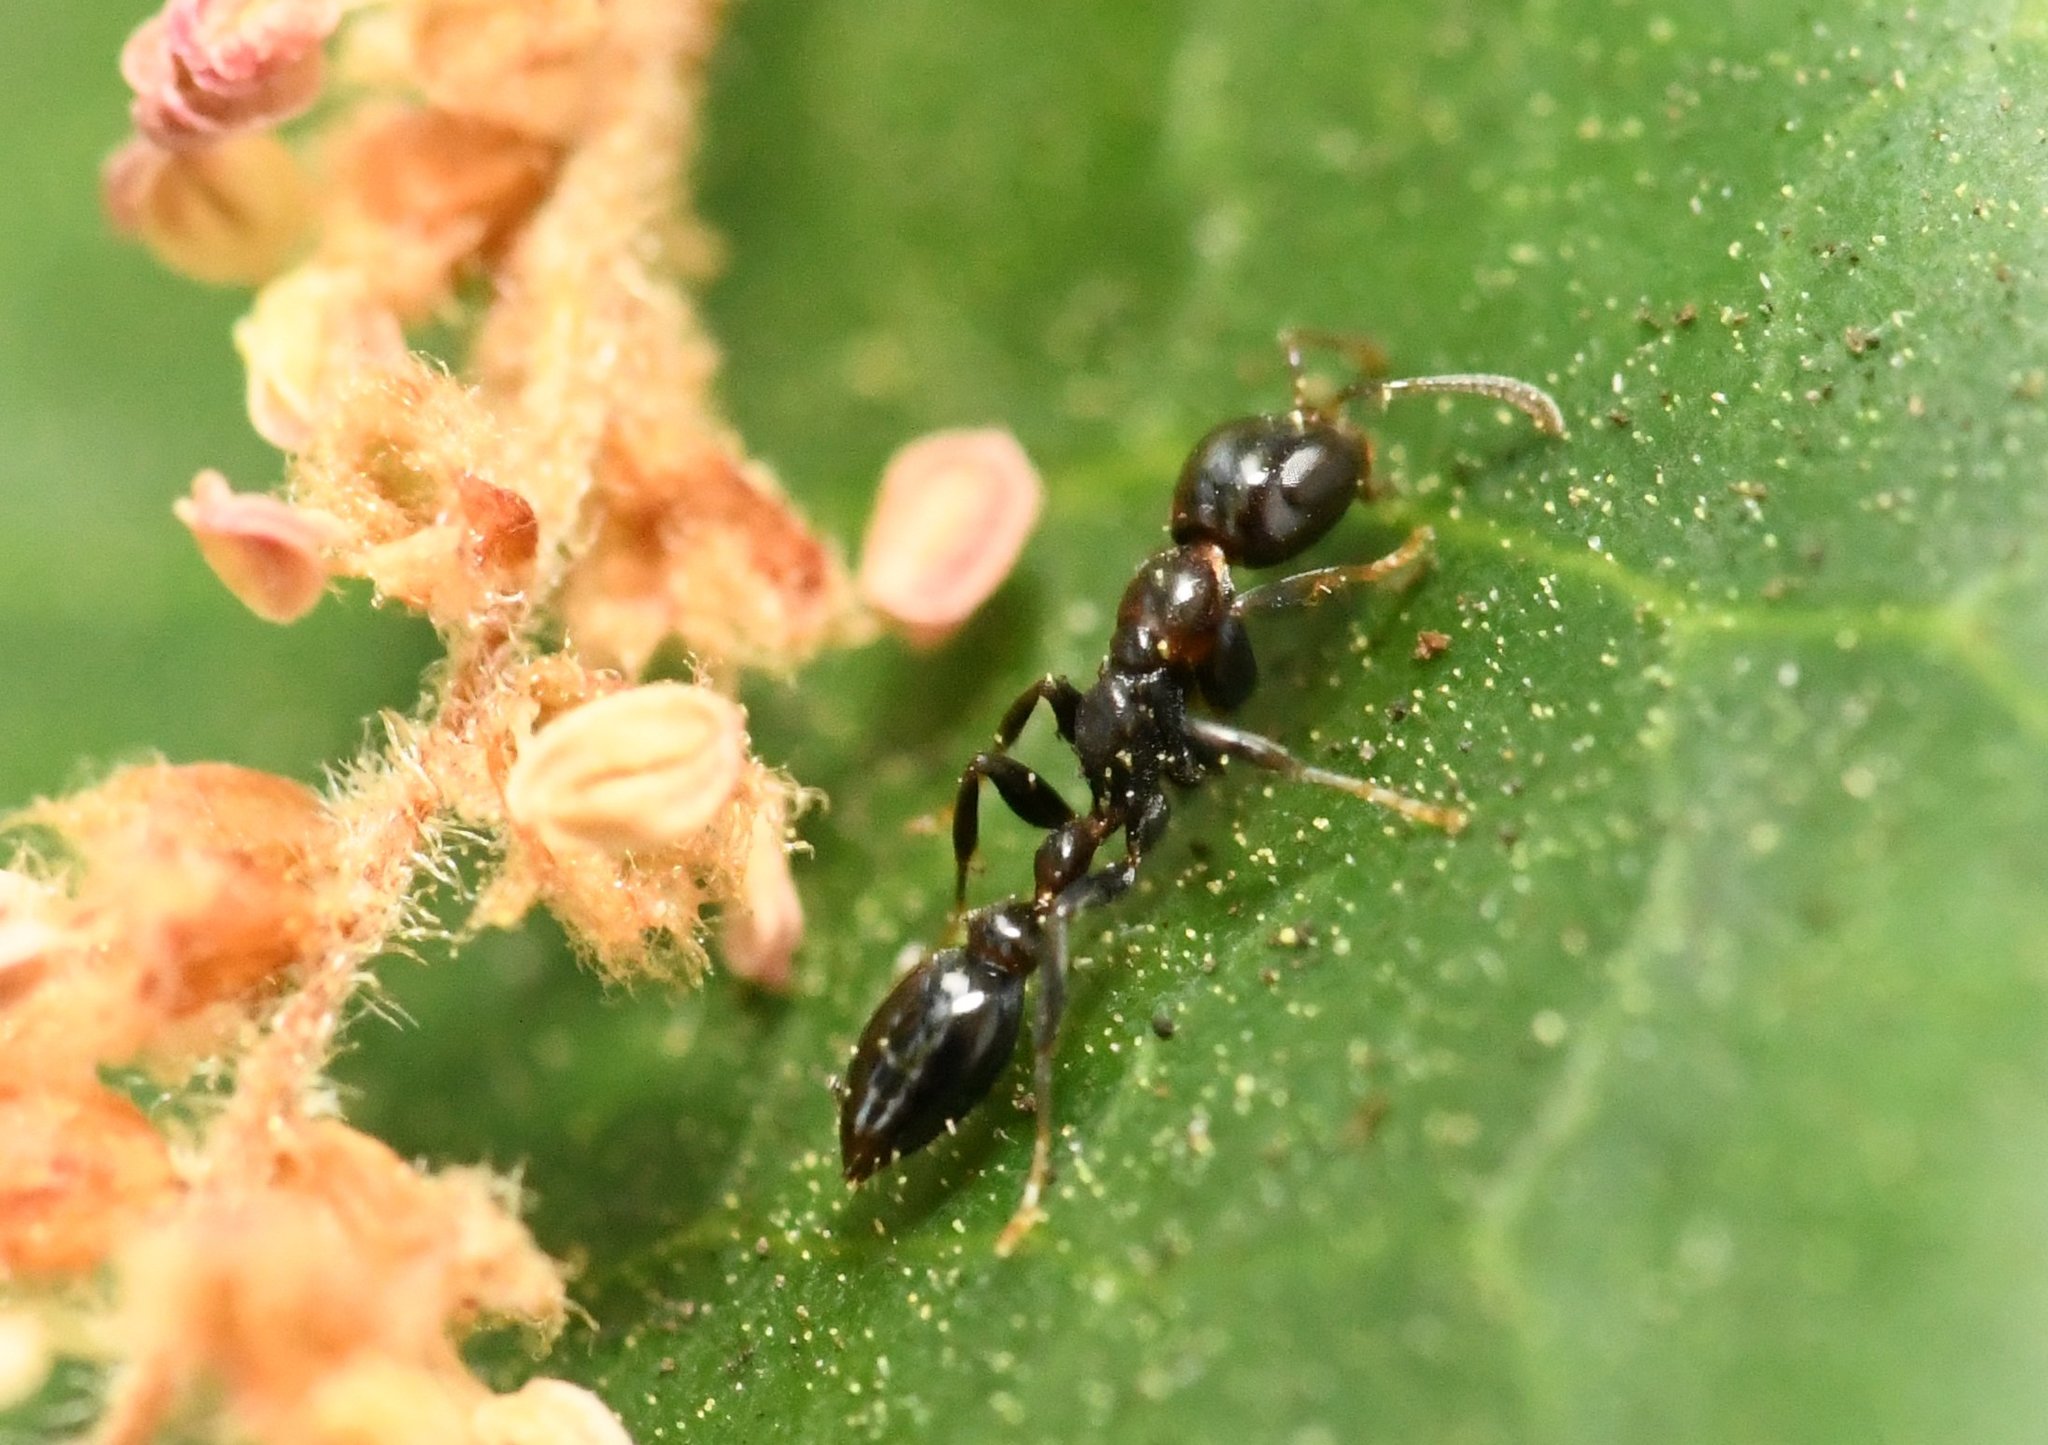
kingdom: Animalia
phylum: Arthropoda
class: Insecta
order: Hymenoptera
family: Formicidae
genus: Pseudomyrmex
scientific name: Pseudomyrmex ejectus
